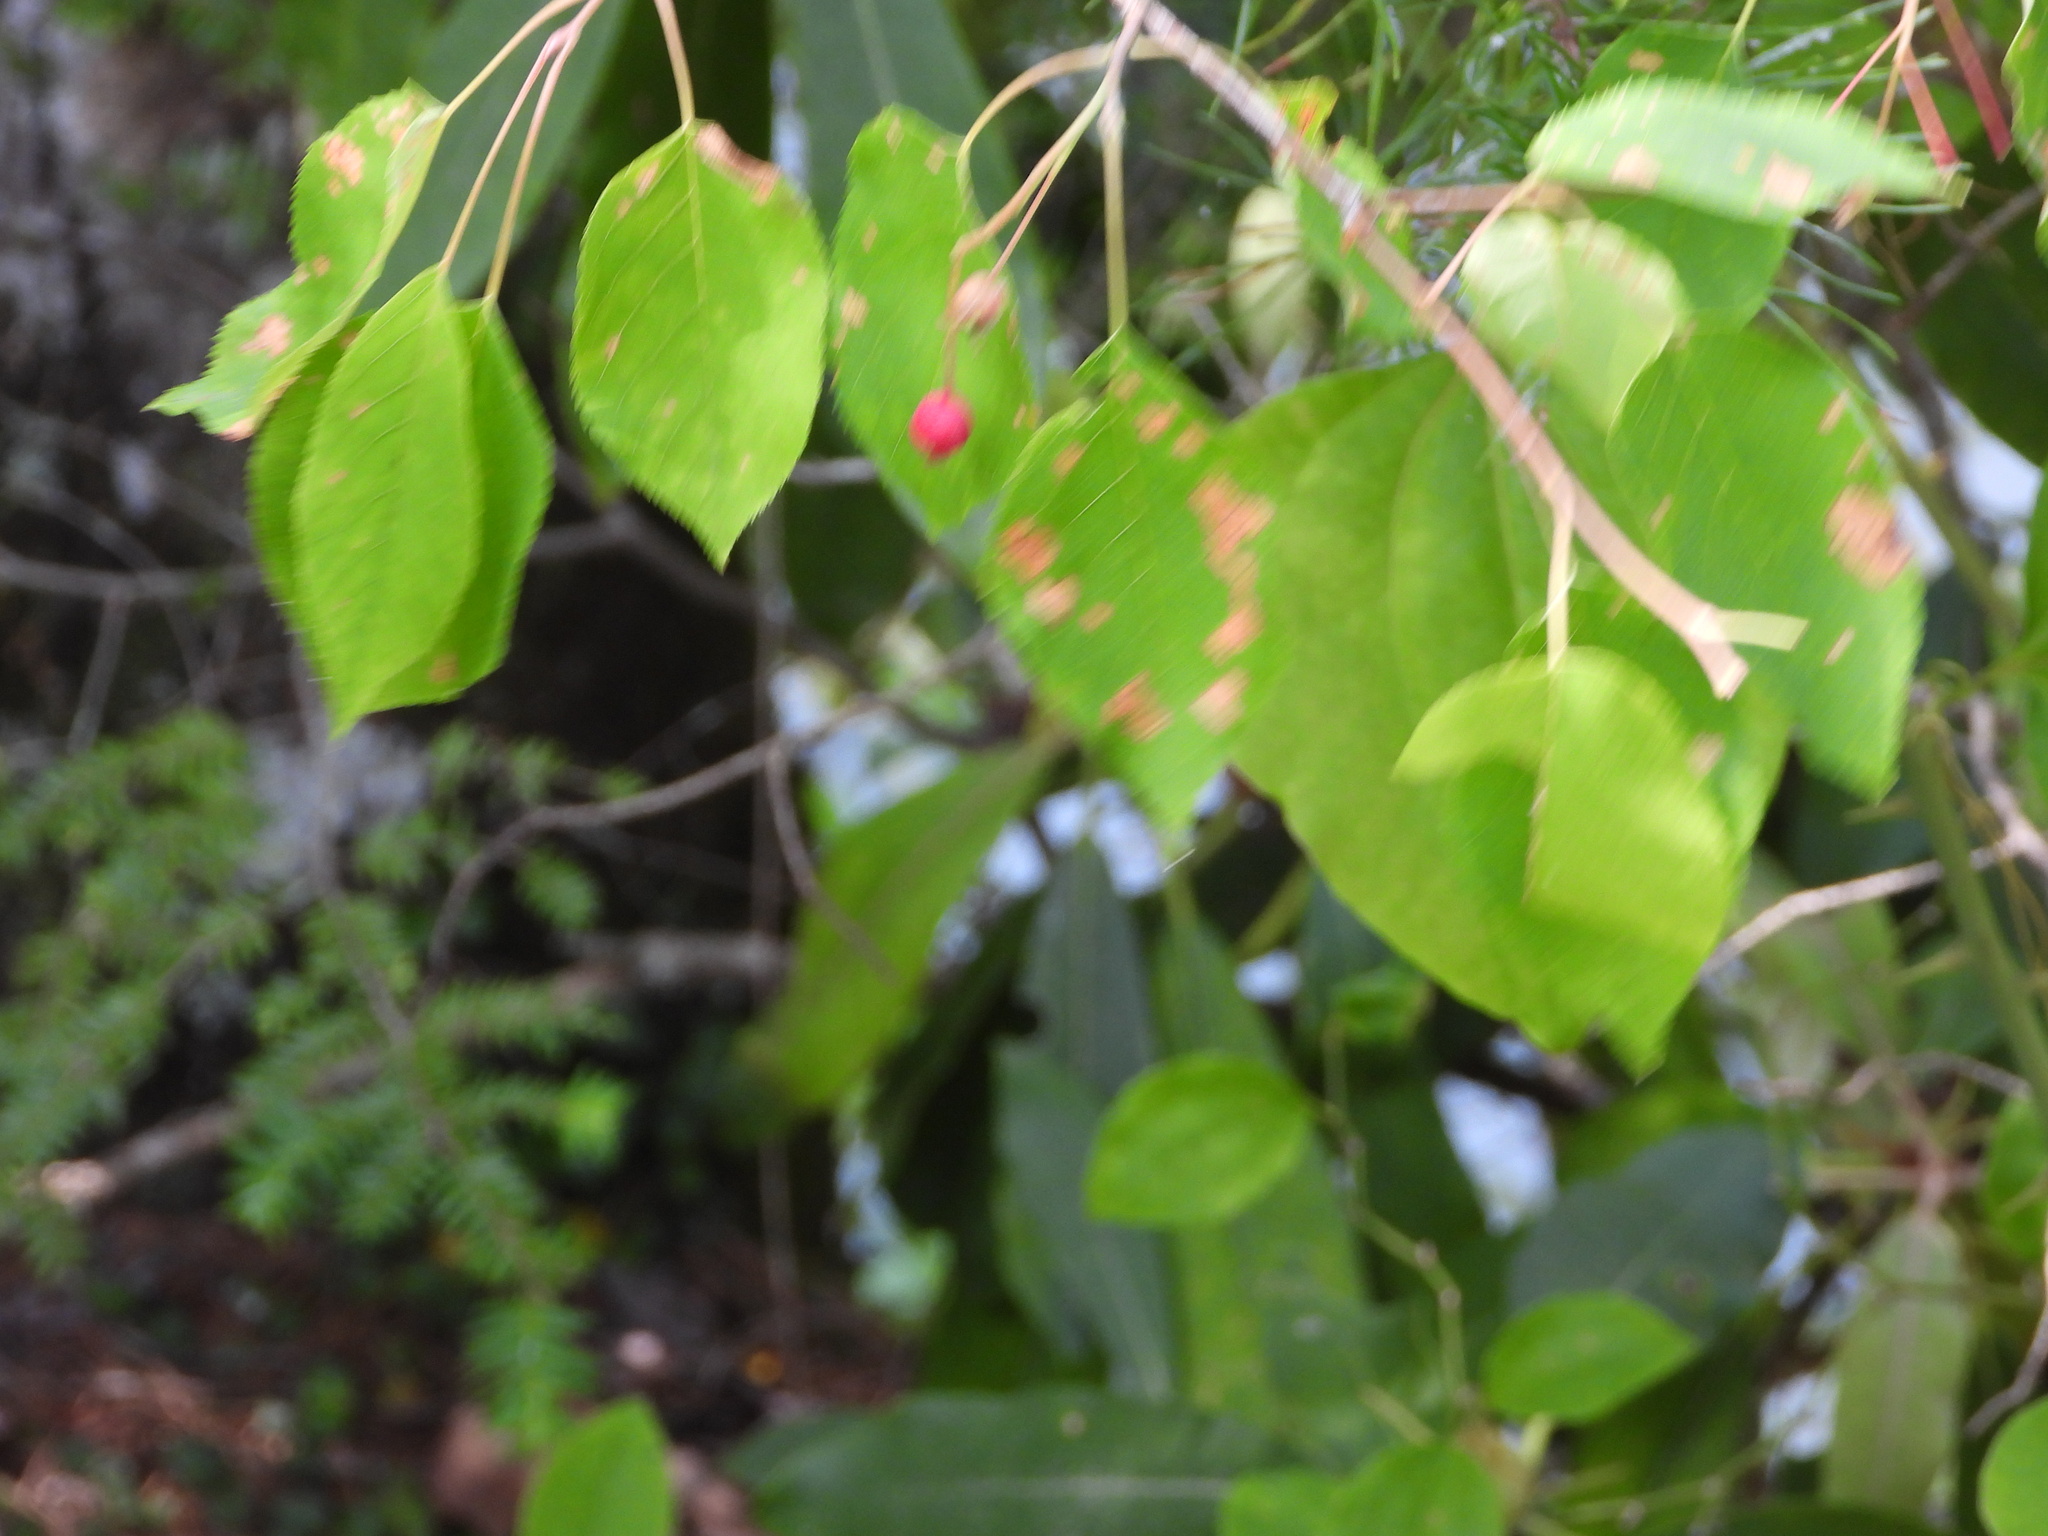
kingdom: Plantae
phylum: Tracheophyta
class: Magnoliopsida
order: Rosales
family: Rosaceae
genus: Amelanchier
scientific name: Amelanchier arborea
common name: Downy serviceberry
